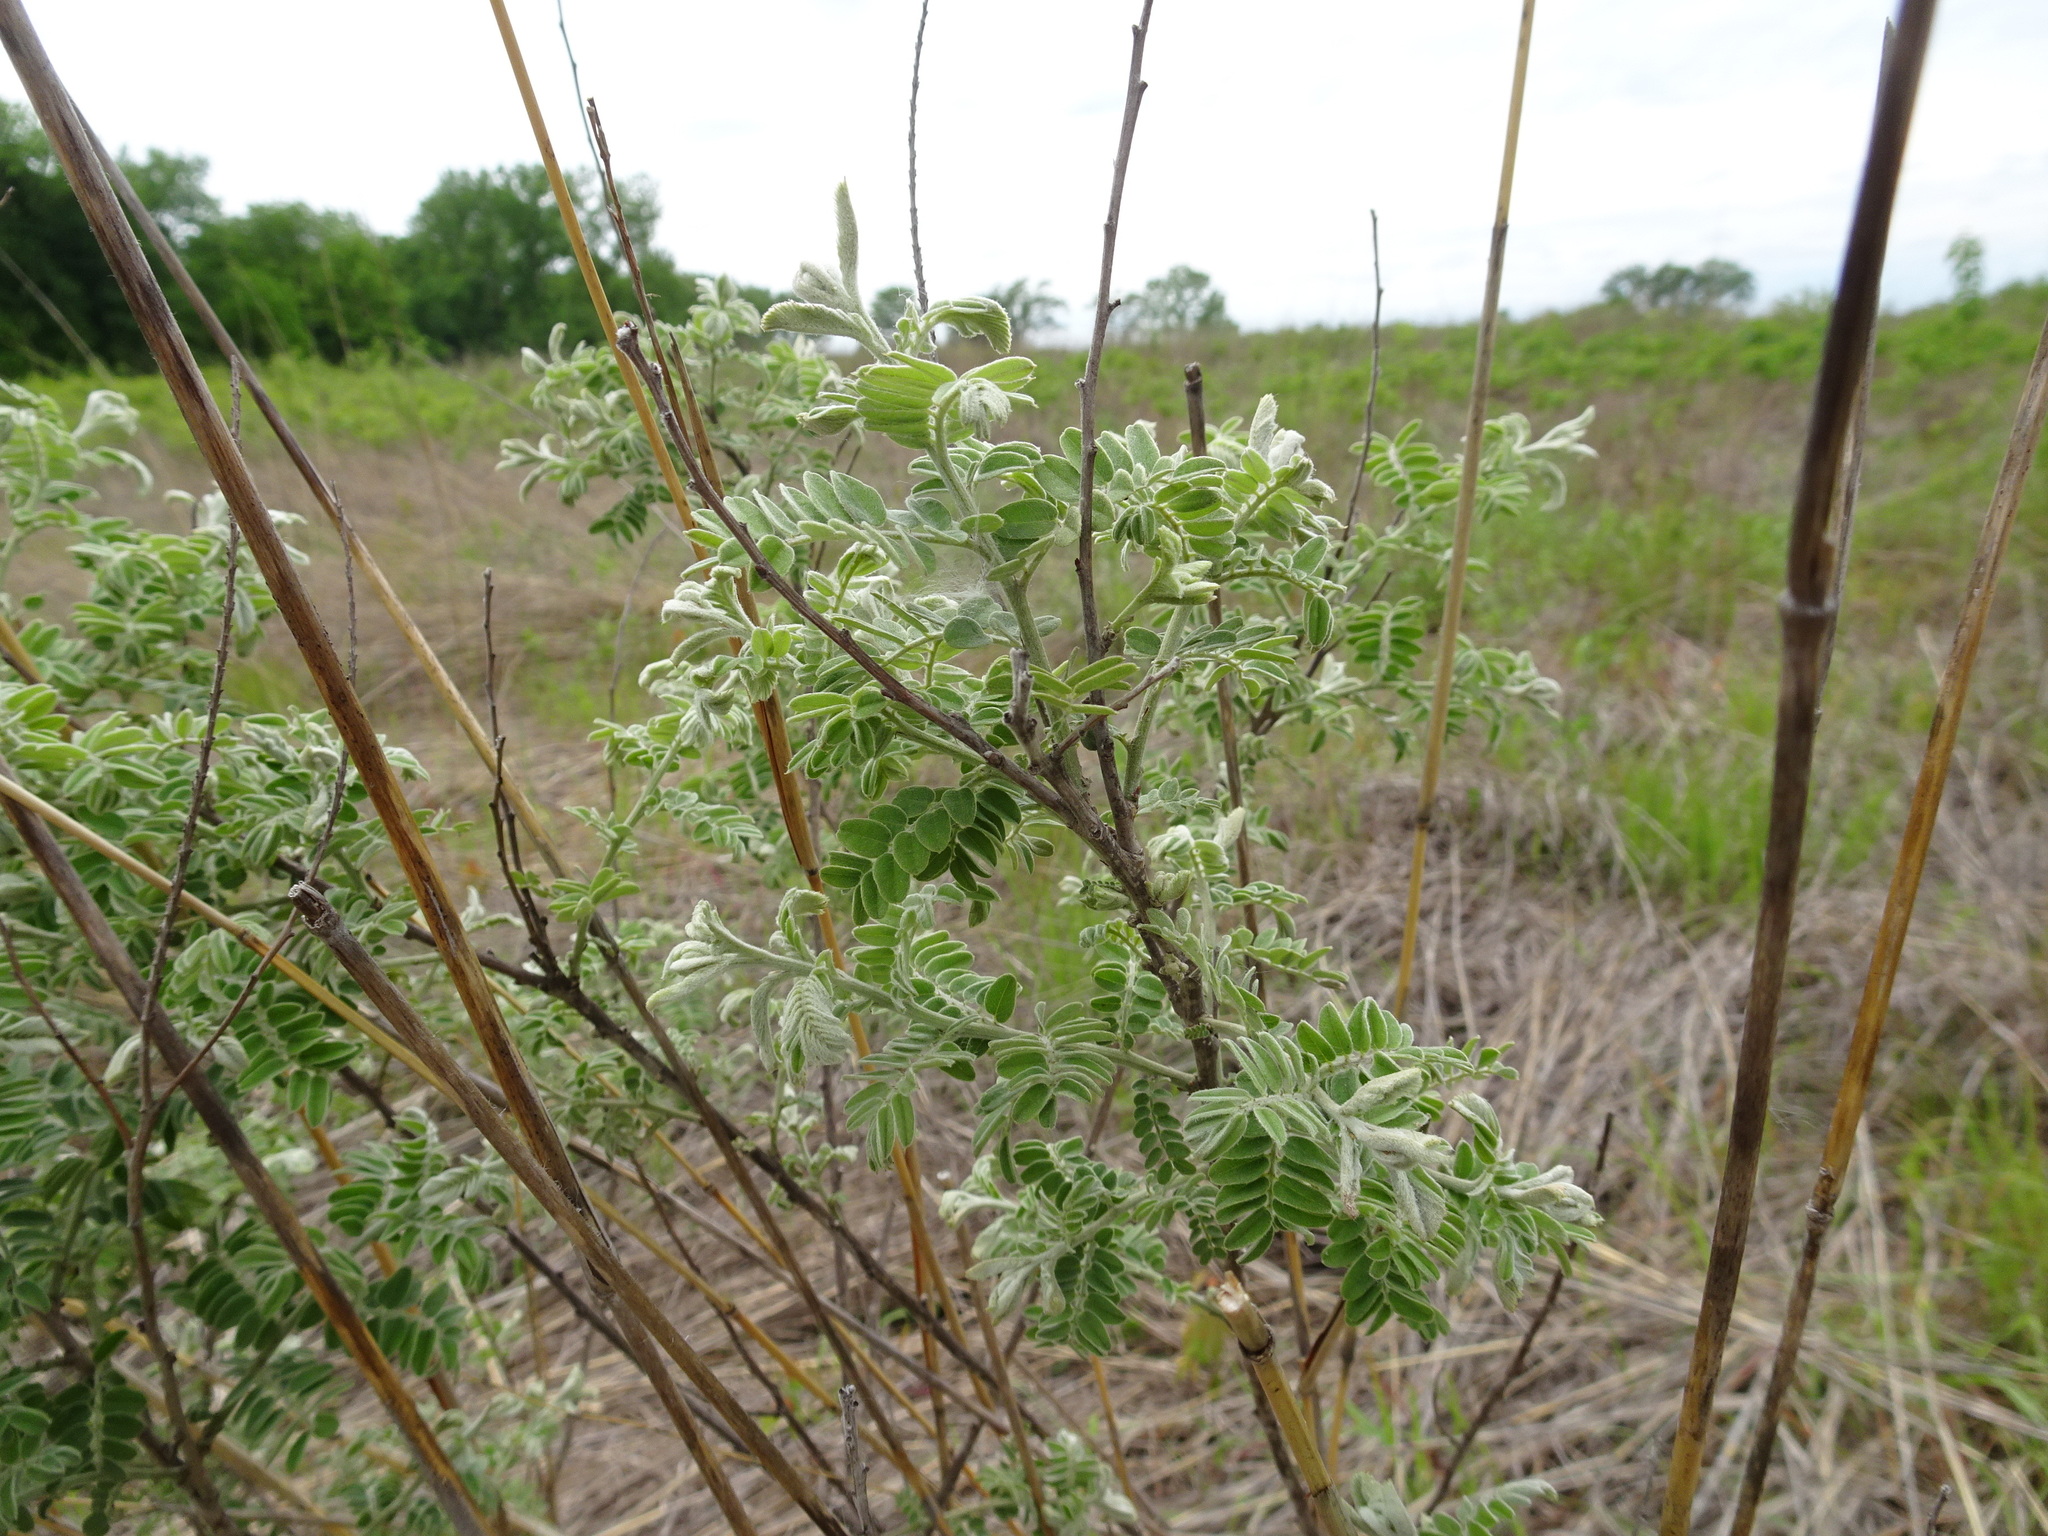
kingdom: Plantae
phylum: Tracheophyta
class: Magnoliopsida
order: Fabales
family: Fabaceae
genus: Amorpha
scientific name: Amorpha canescens
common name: Leadplant
